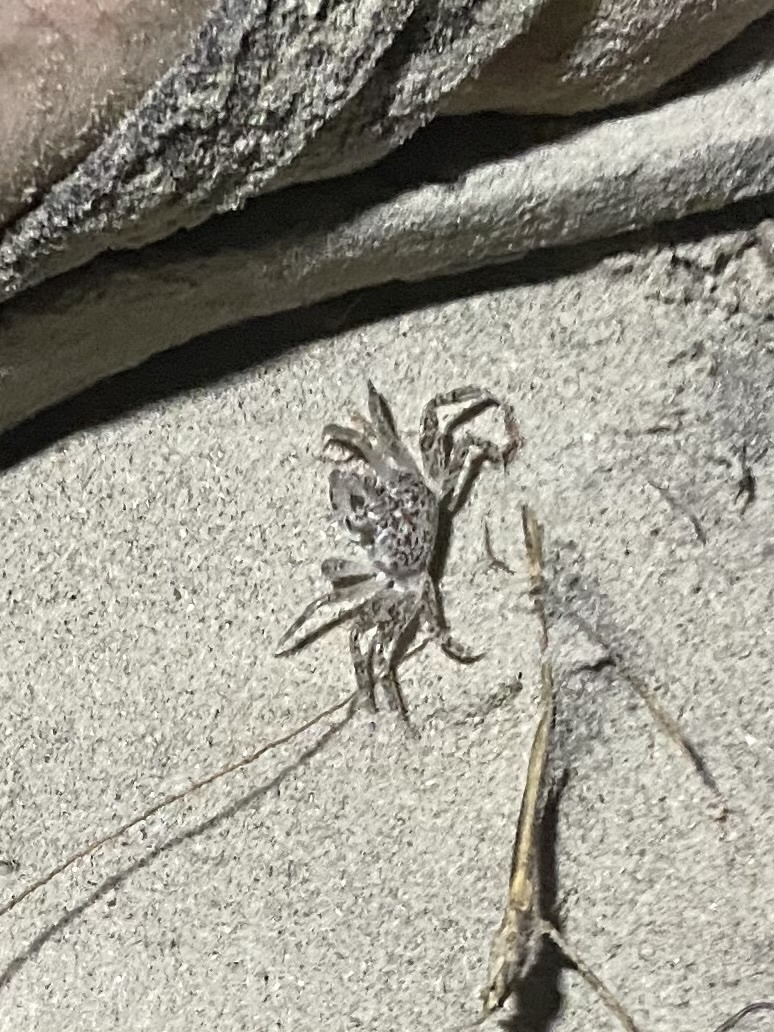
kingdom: Animalia
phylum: Arthropoda
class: Malacostraca
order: Decapoda
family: Ocypodidae
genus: Ocypode
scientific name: Ocypode quadrata
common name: Ghost crab
